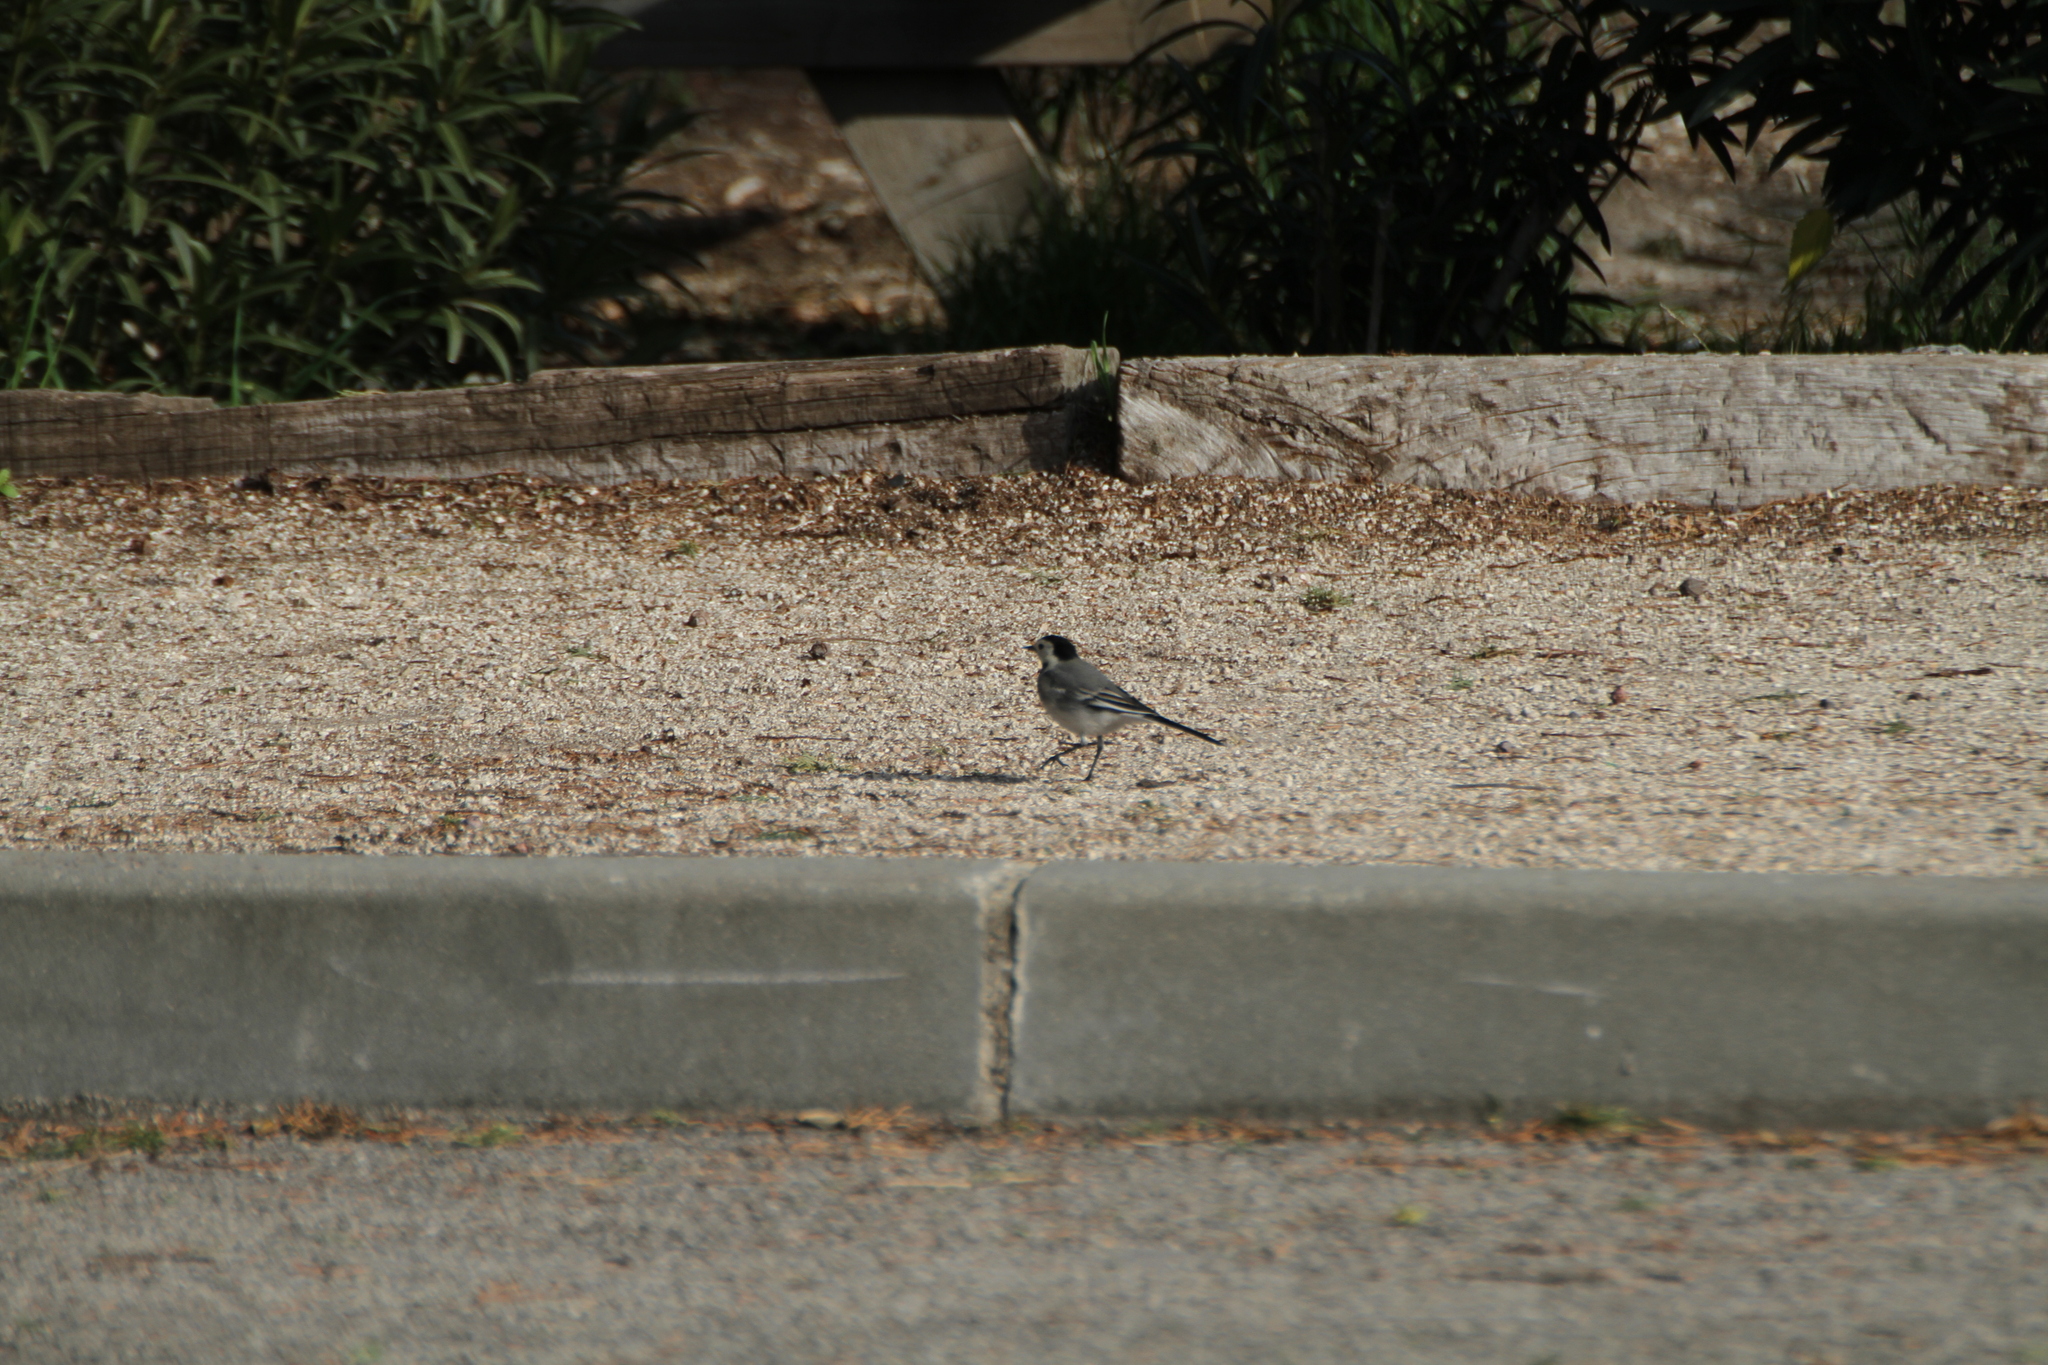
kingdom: Animalia
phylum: Chordata
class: Aves
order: Passeriformes
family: Motacillidae
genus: Motacilla
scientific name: Motacilla alba
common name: White wagtail
